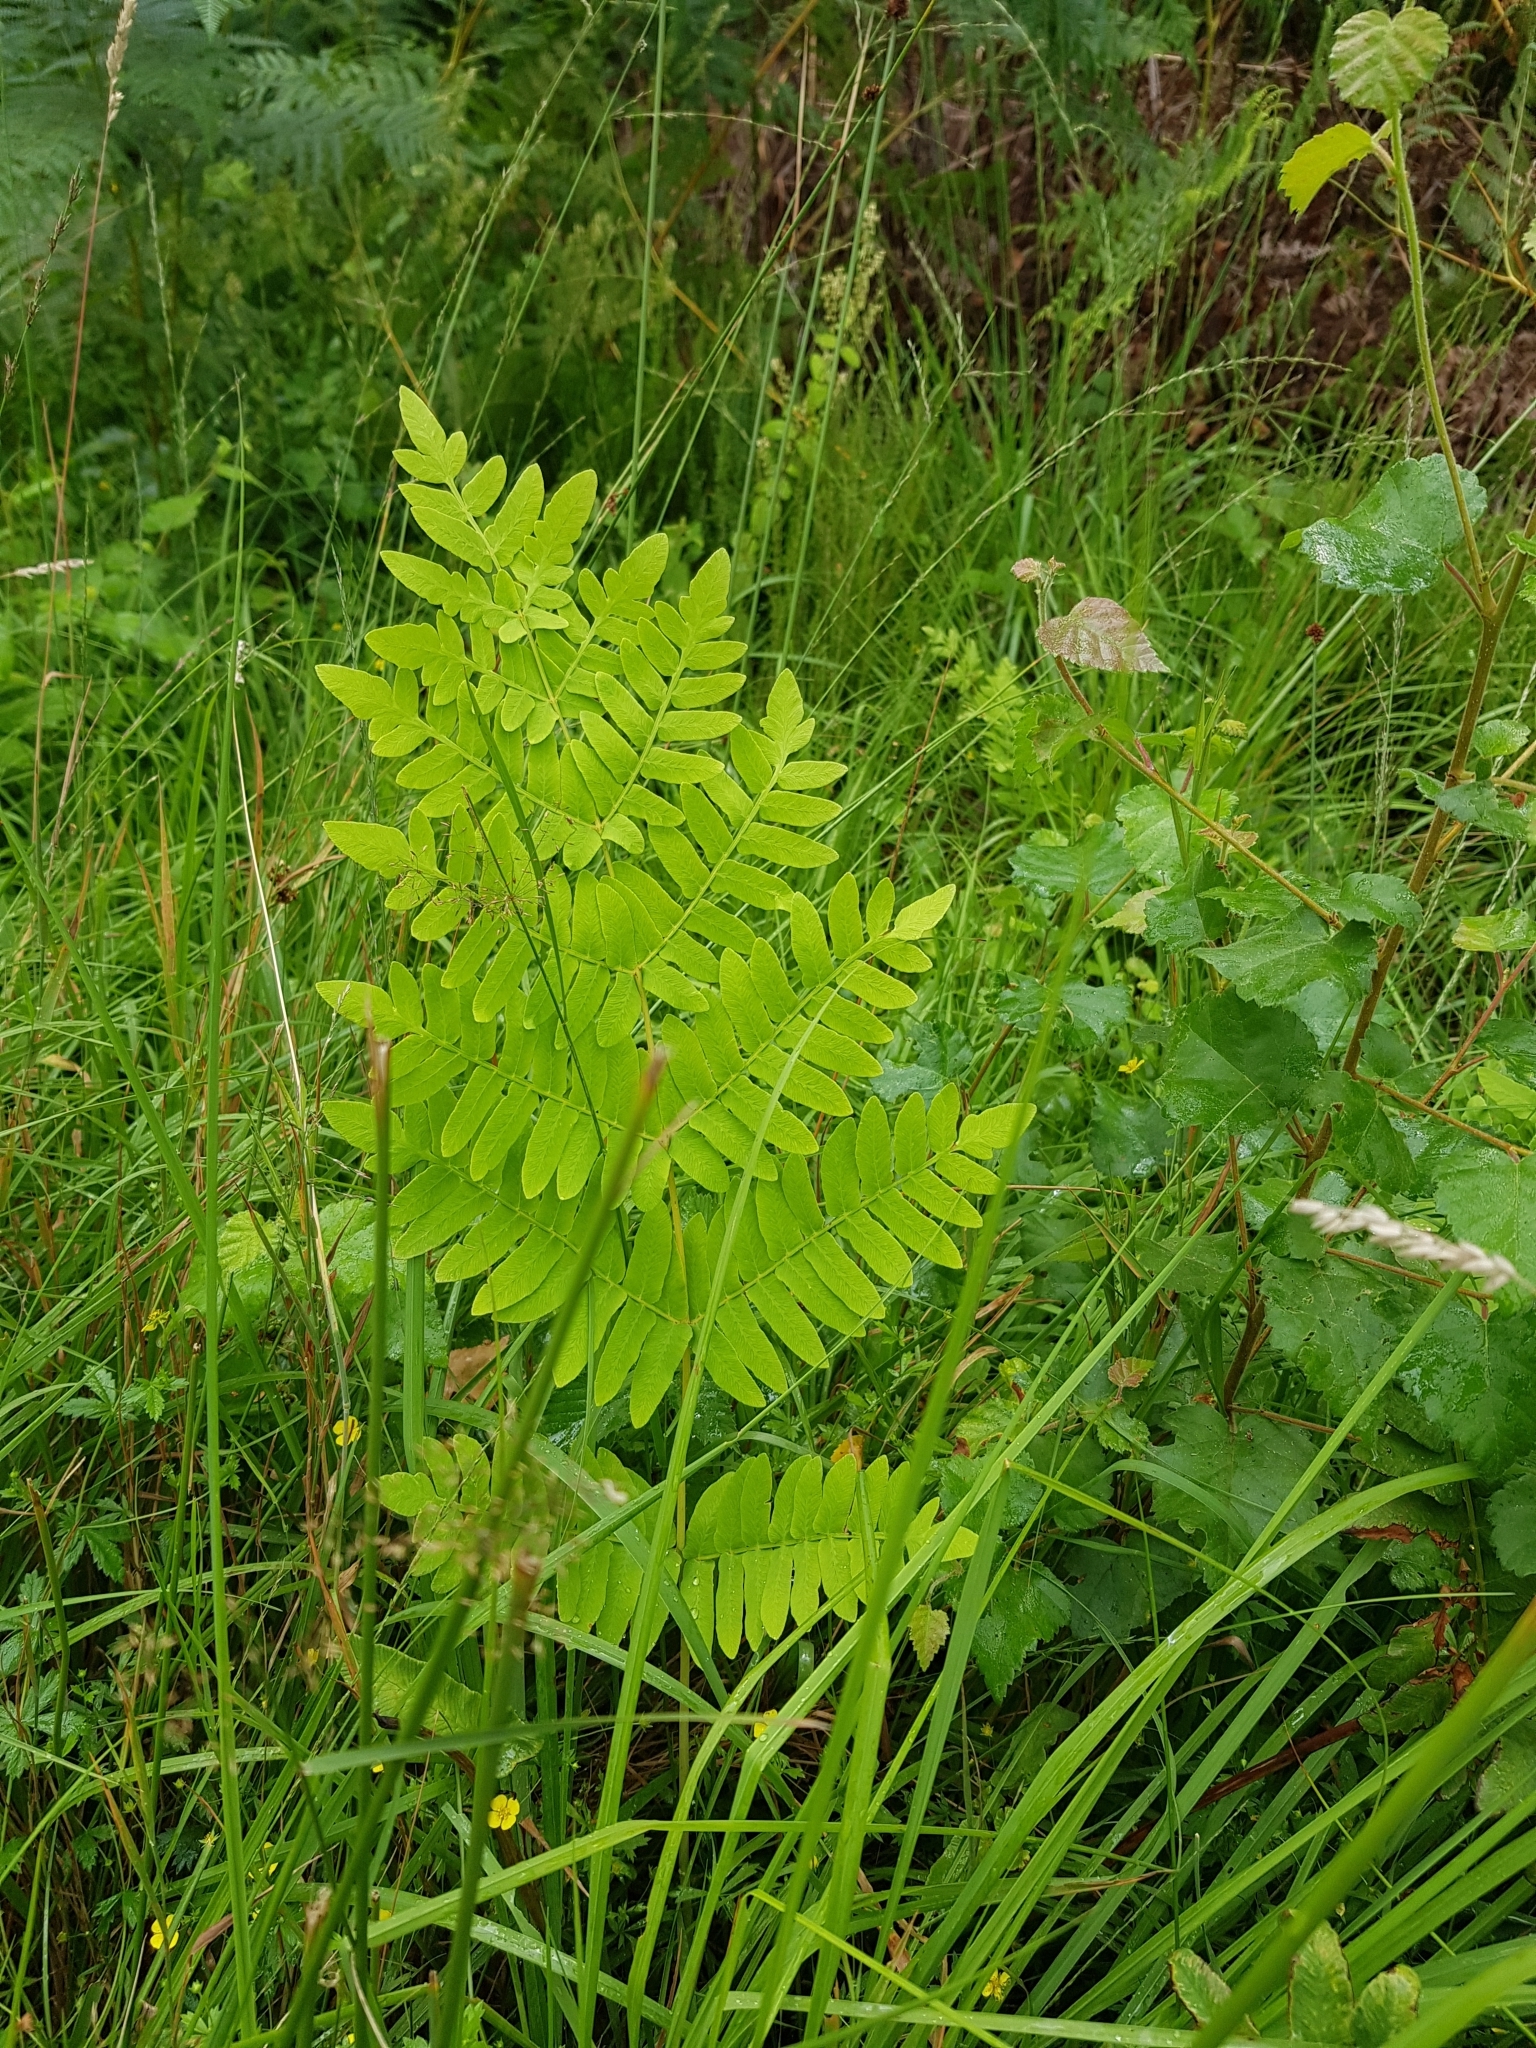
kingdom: Plantae
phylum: Tracheophyta
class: Polypodiopsida
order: Osmundales
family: Osmundaceae
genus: Osmunda
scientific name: Osmunda regalis
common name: Royal fern
